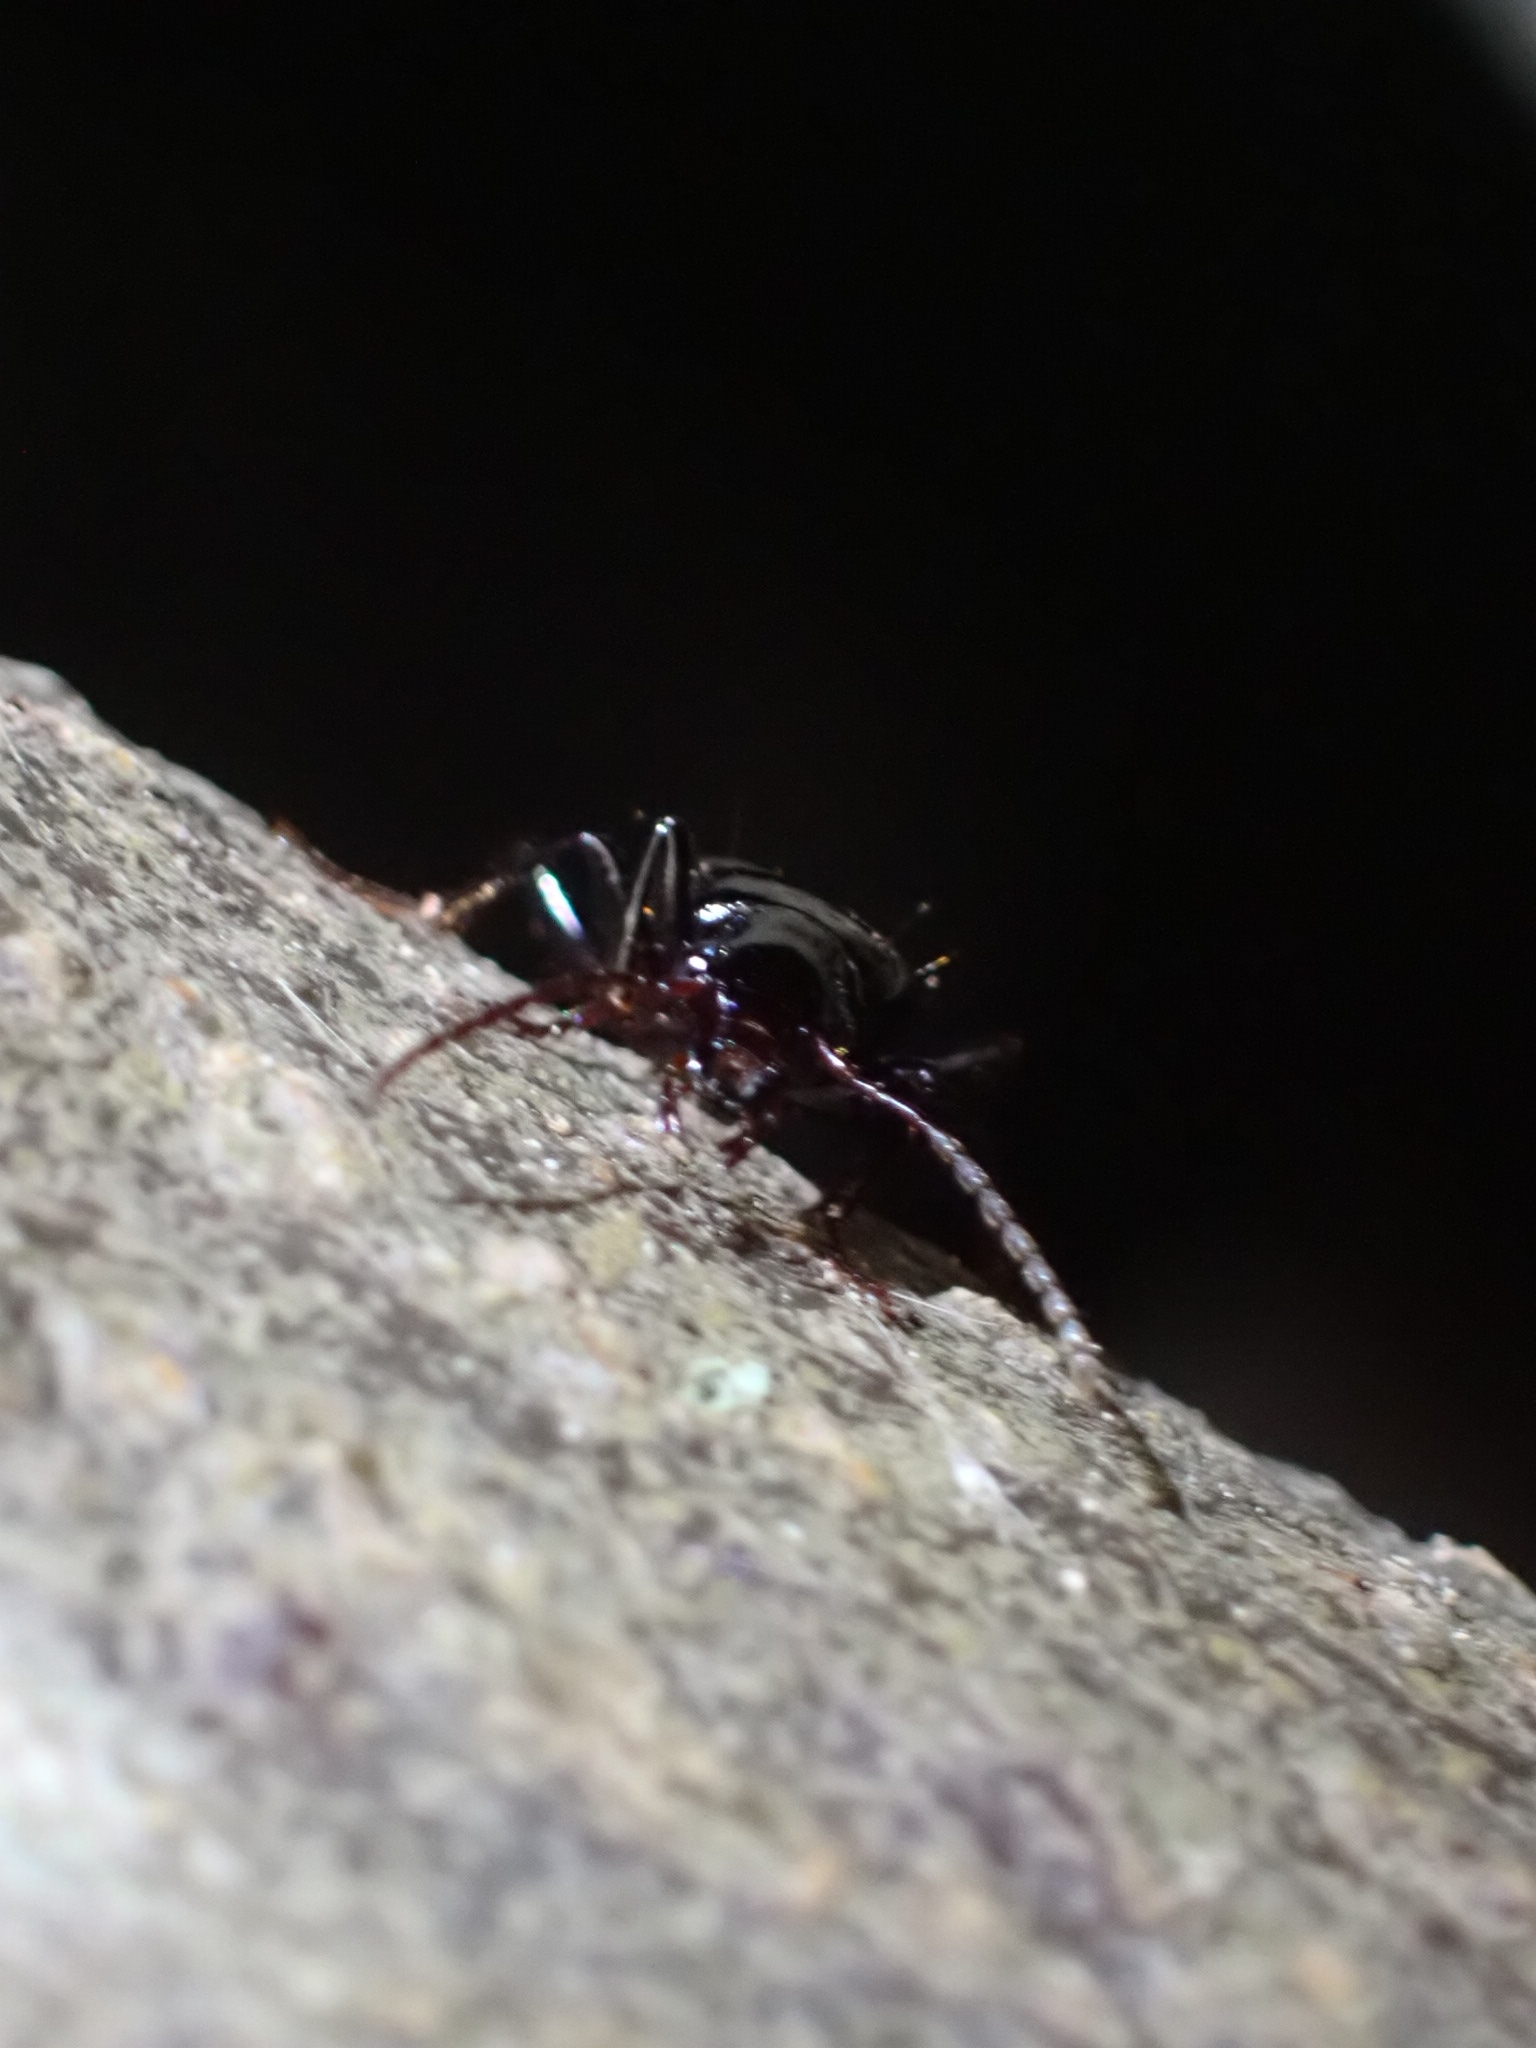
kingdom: Animalia
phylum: Arthropoda
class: Insecta
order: Coleoptera
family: Carabidae
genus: Laemostenus
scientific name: Laemostenus complanatus
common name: Cosmopolitan ground beetle
